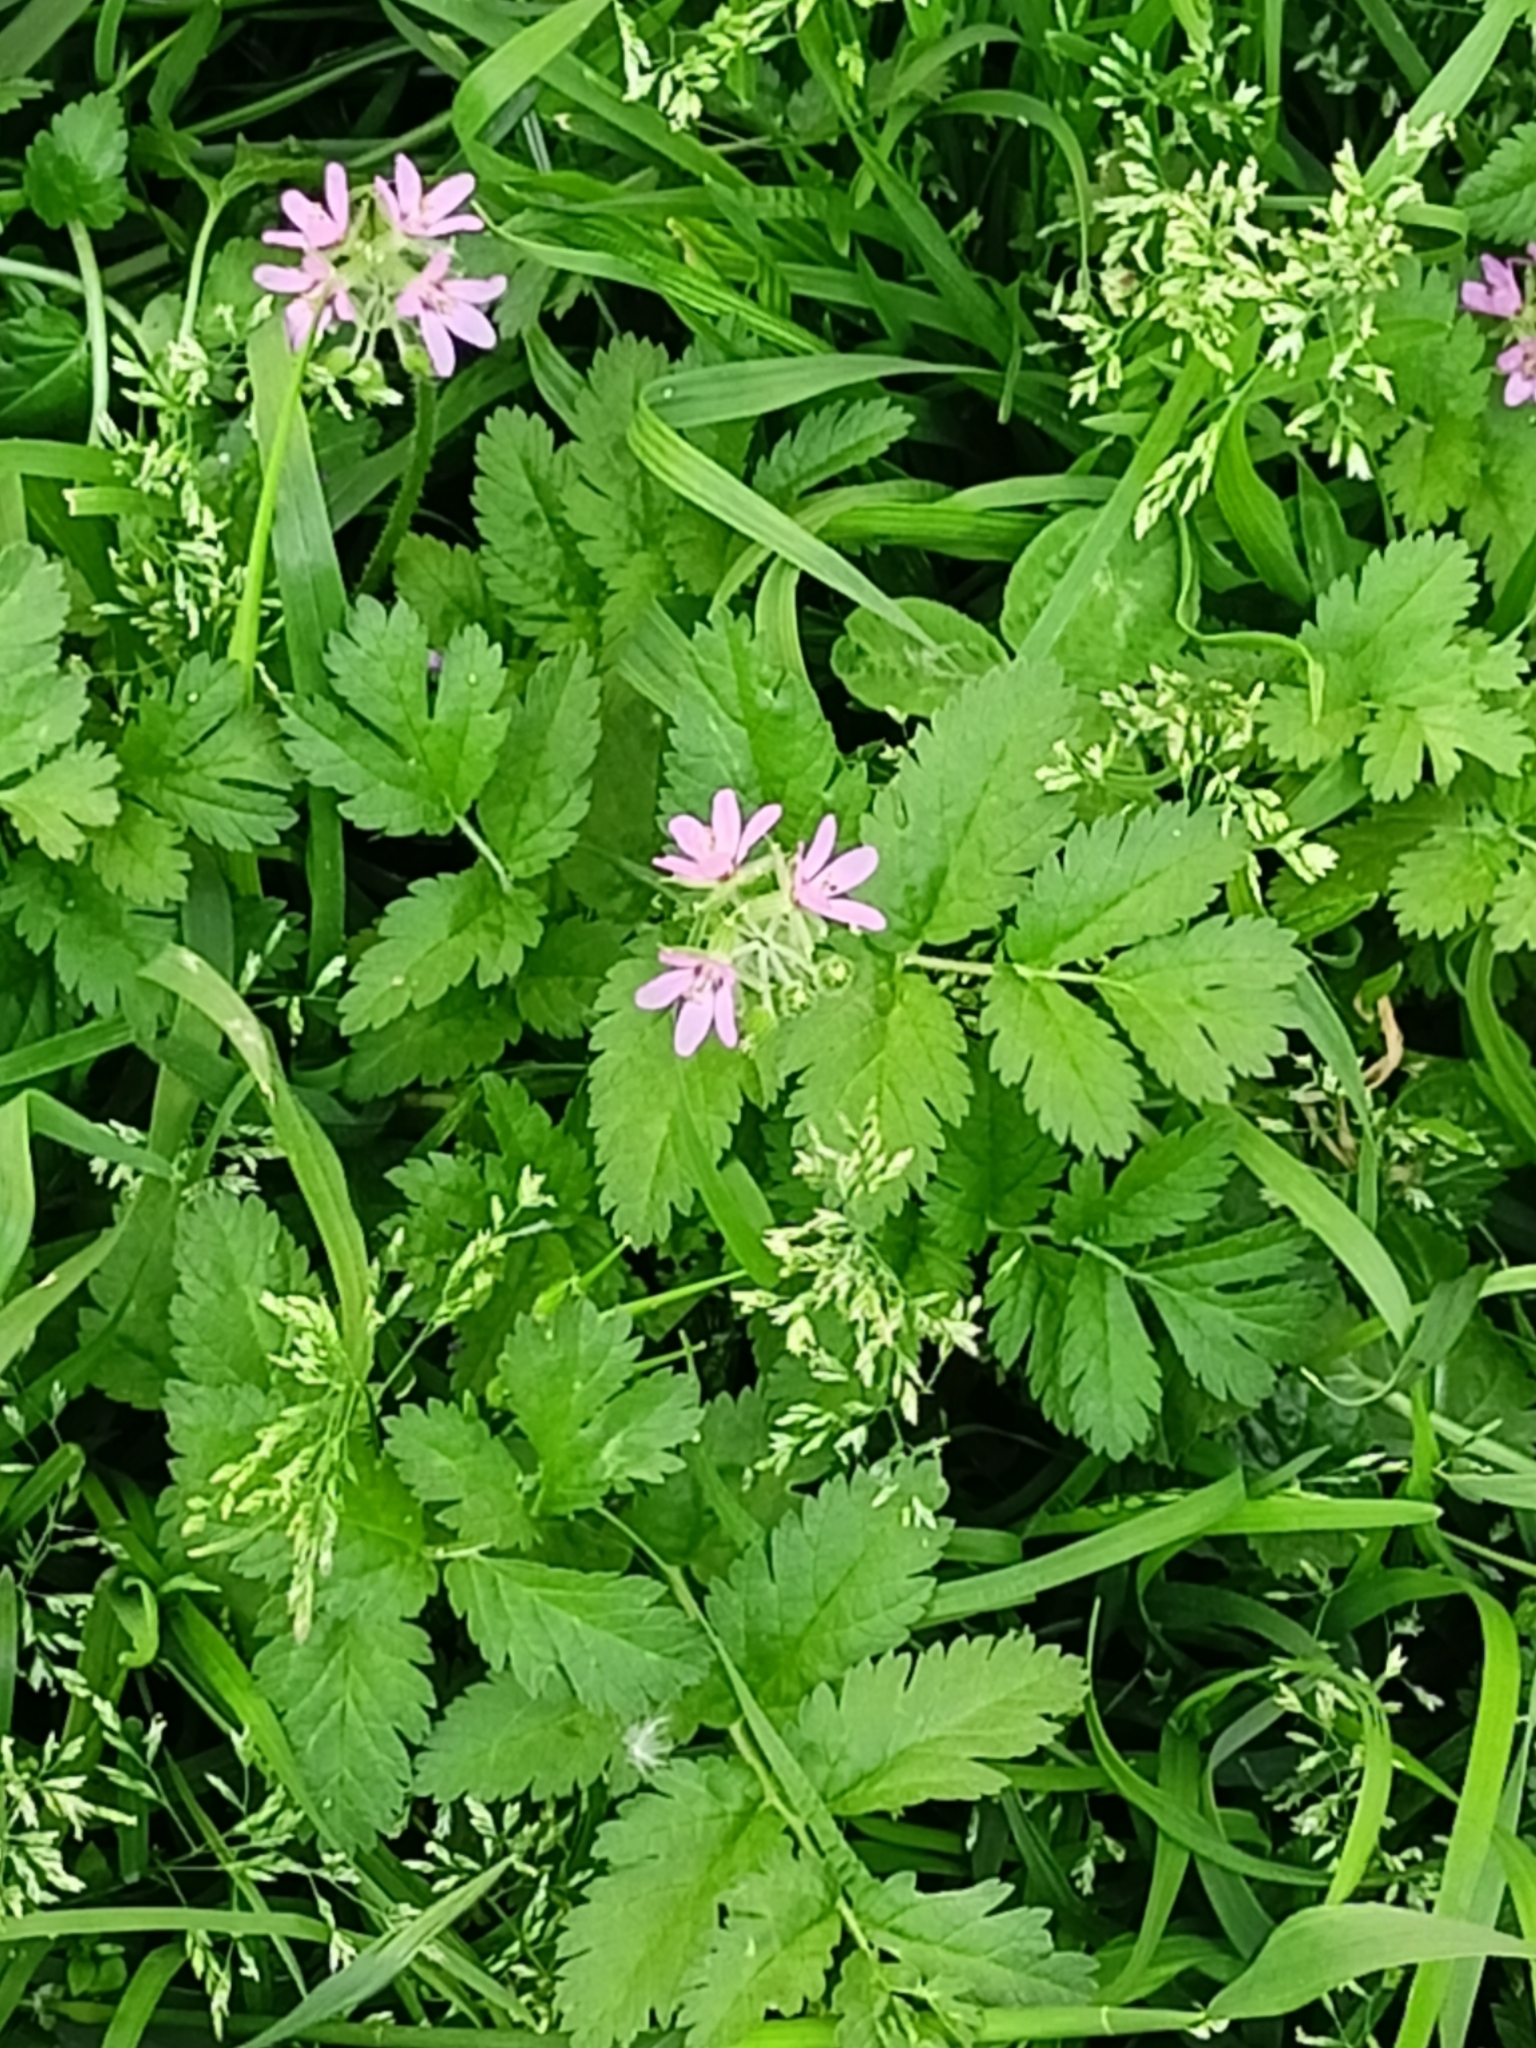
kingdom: Plantae
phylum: Tracheophyta
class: Magnoliopsida
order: Geraniales
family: Geraniaceae
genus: Erodium
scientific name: Erodium moschatum
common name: Musk stork's-bill
